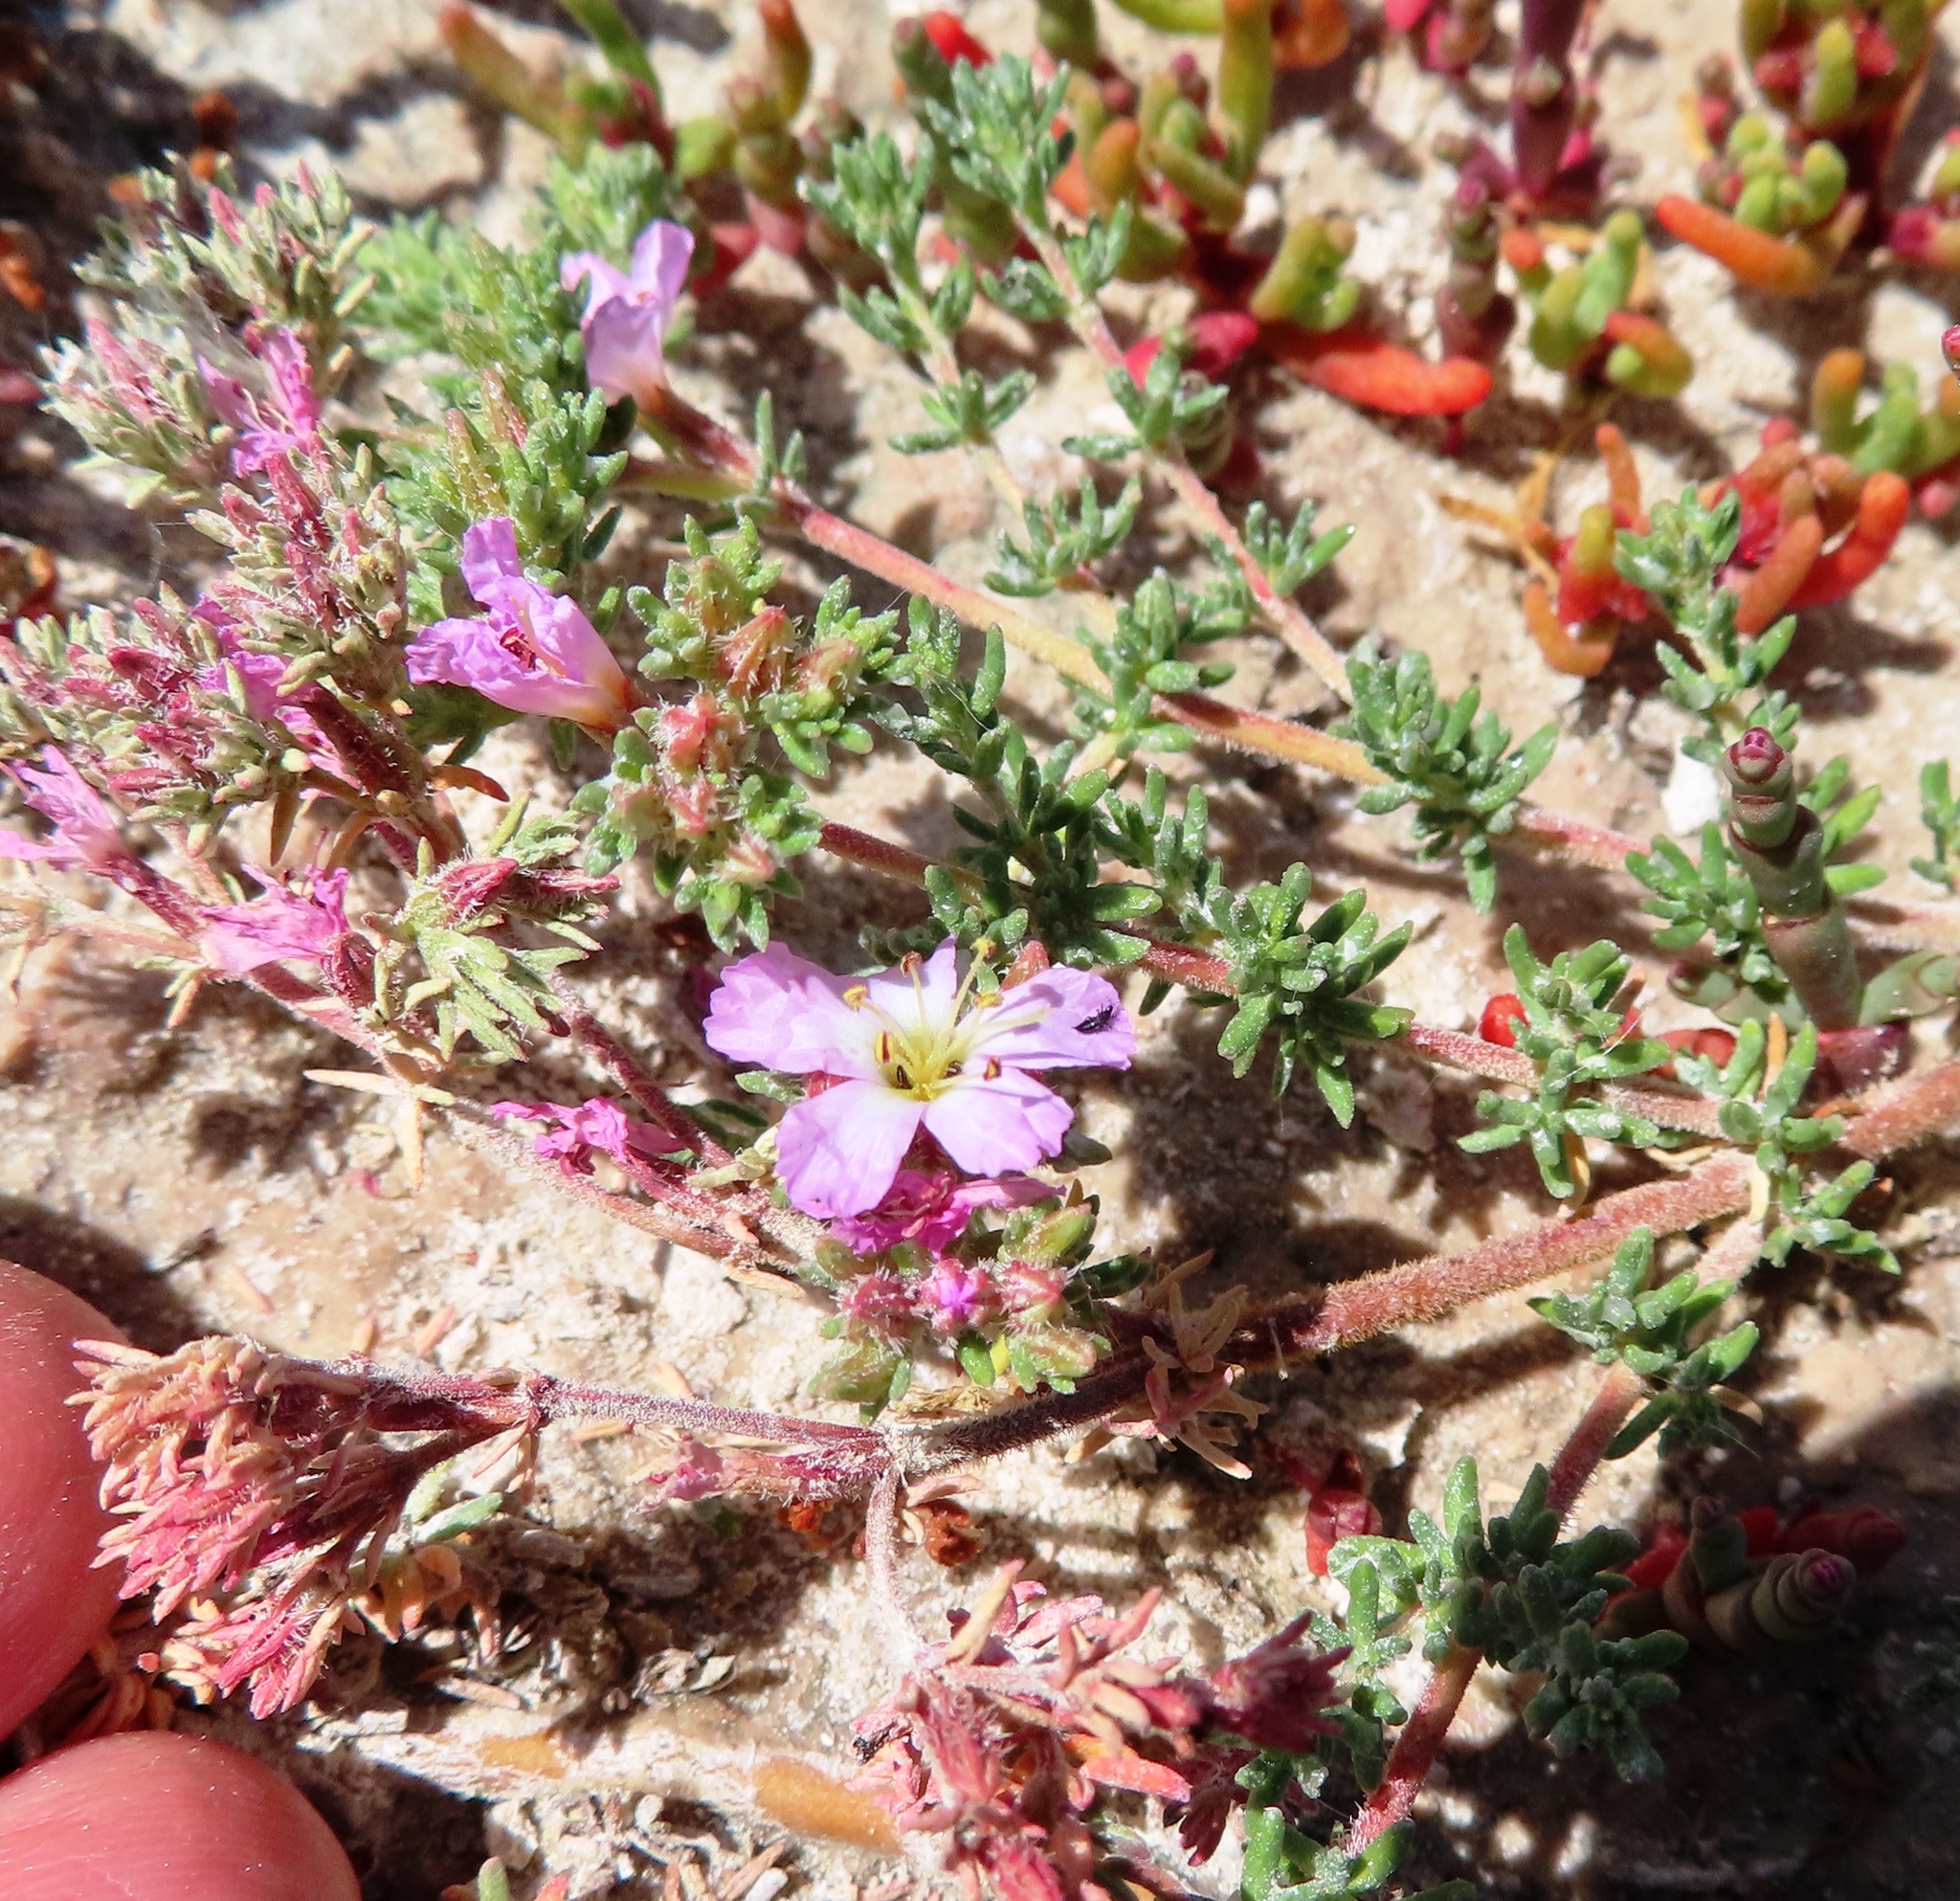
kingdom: Plantae
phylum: Tracheophyta
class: Magnoliopsida
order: Caryophyllales
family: Frankeniaceae
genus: Frankenia
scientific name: Frankenia repens
